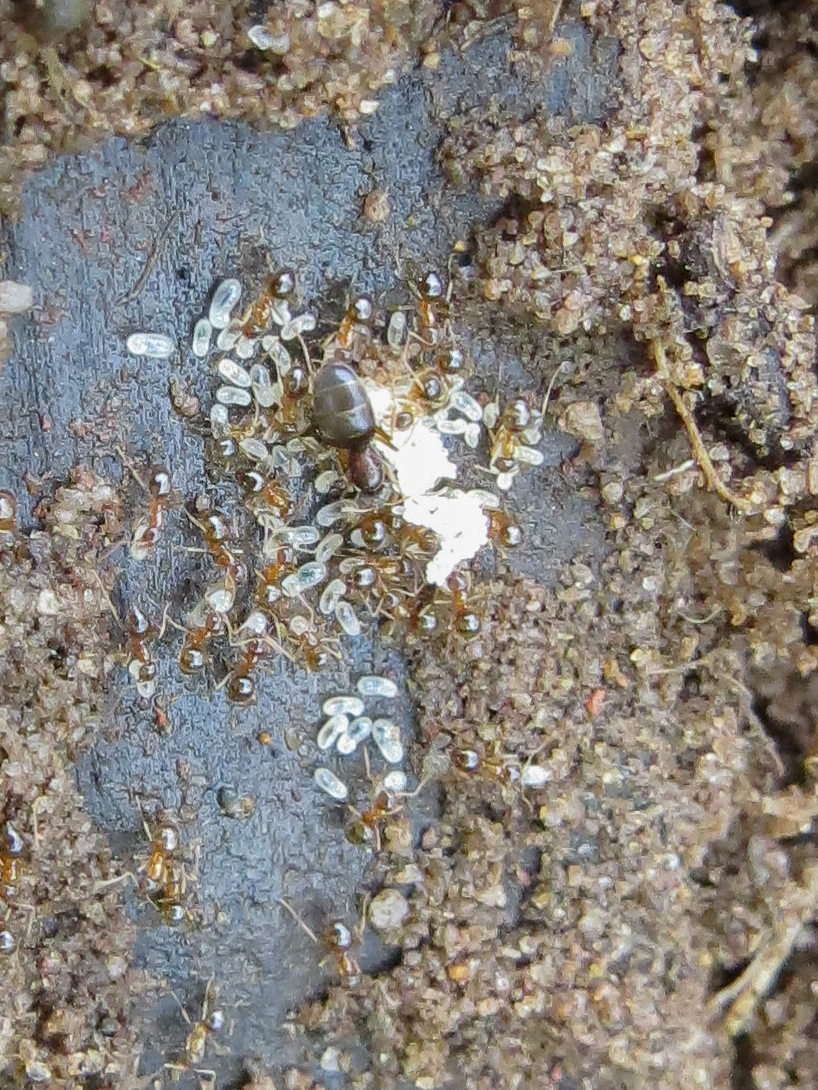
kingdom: Animalia
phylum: Arthropoda
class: Insecta
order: Hymenoptera
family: Formicidae
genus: Paratrechina
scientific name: Paratrechina flavipes
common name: Eastern asian formicine ant
